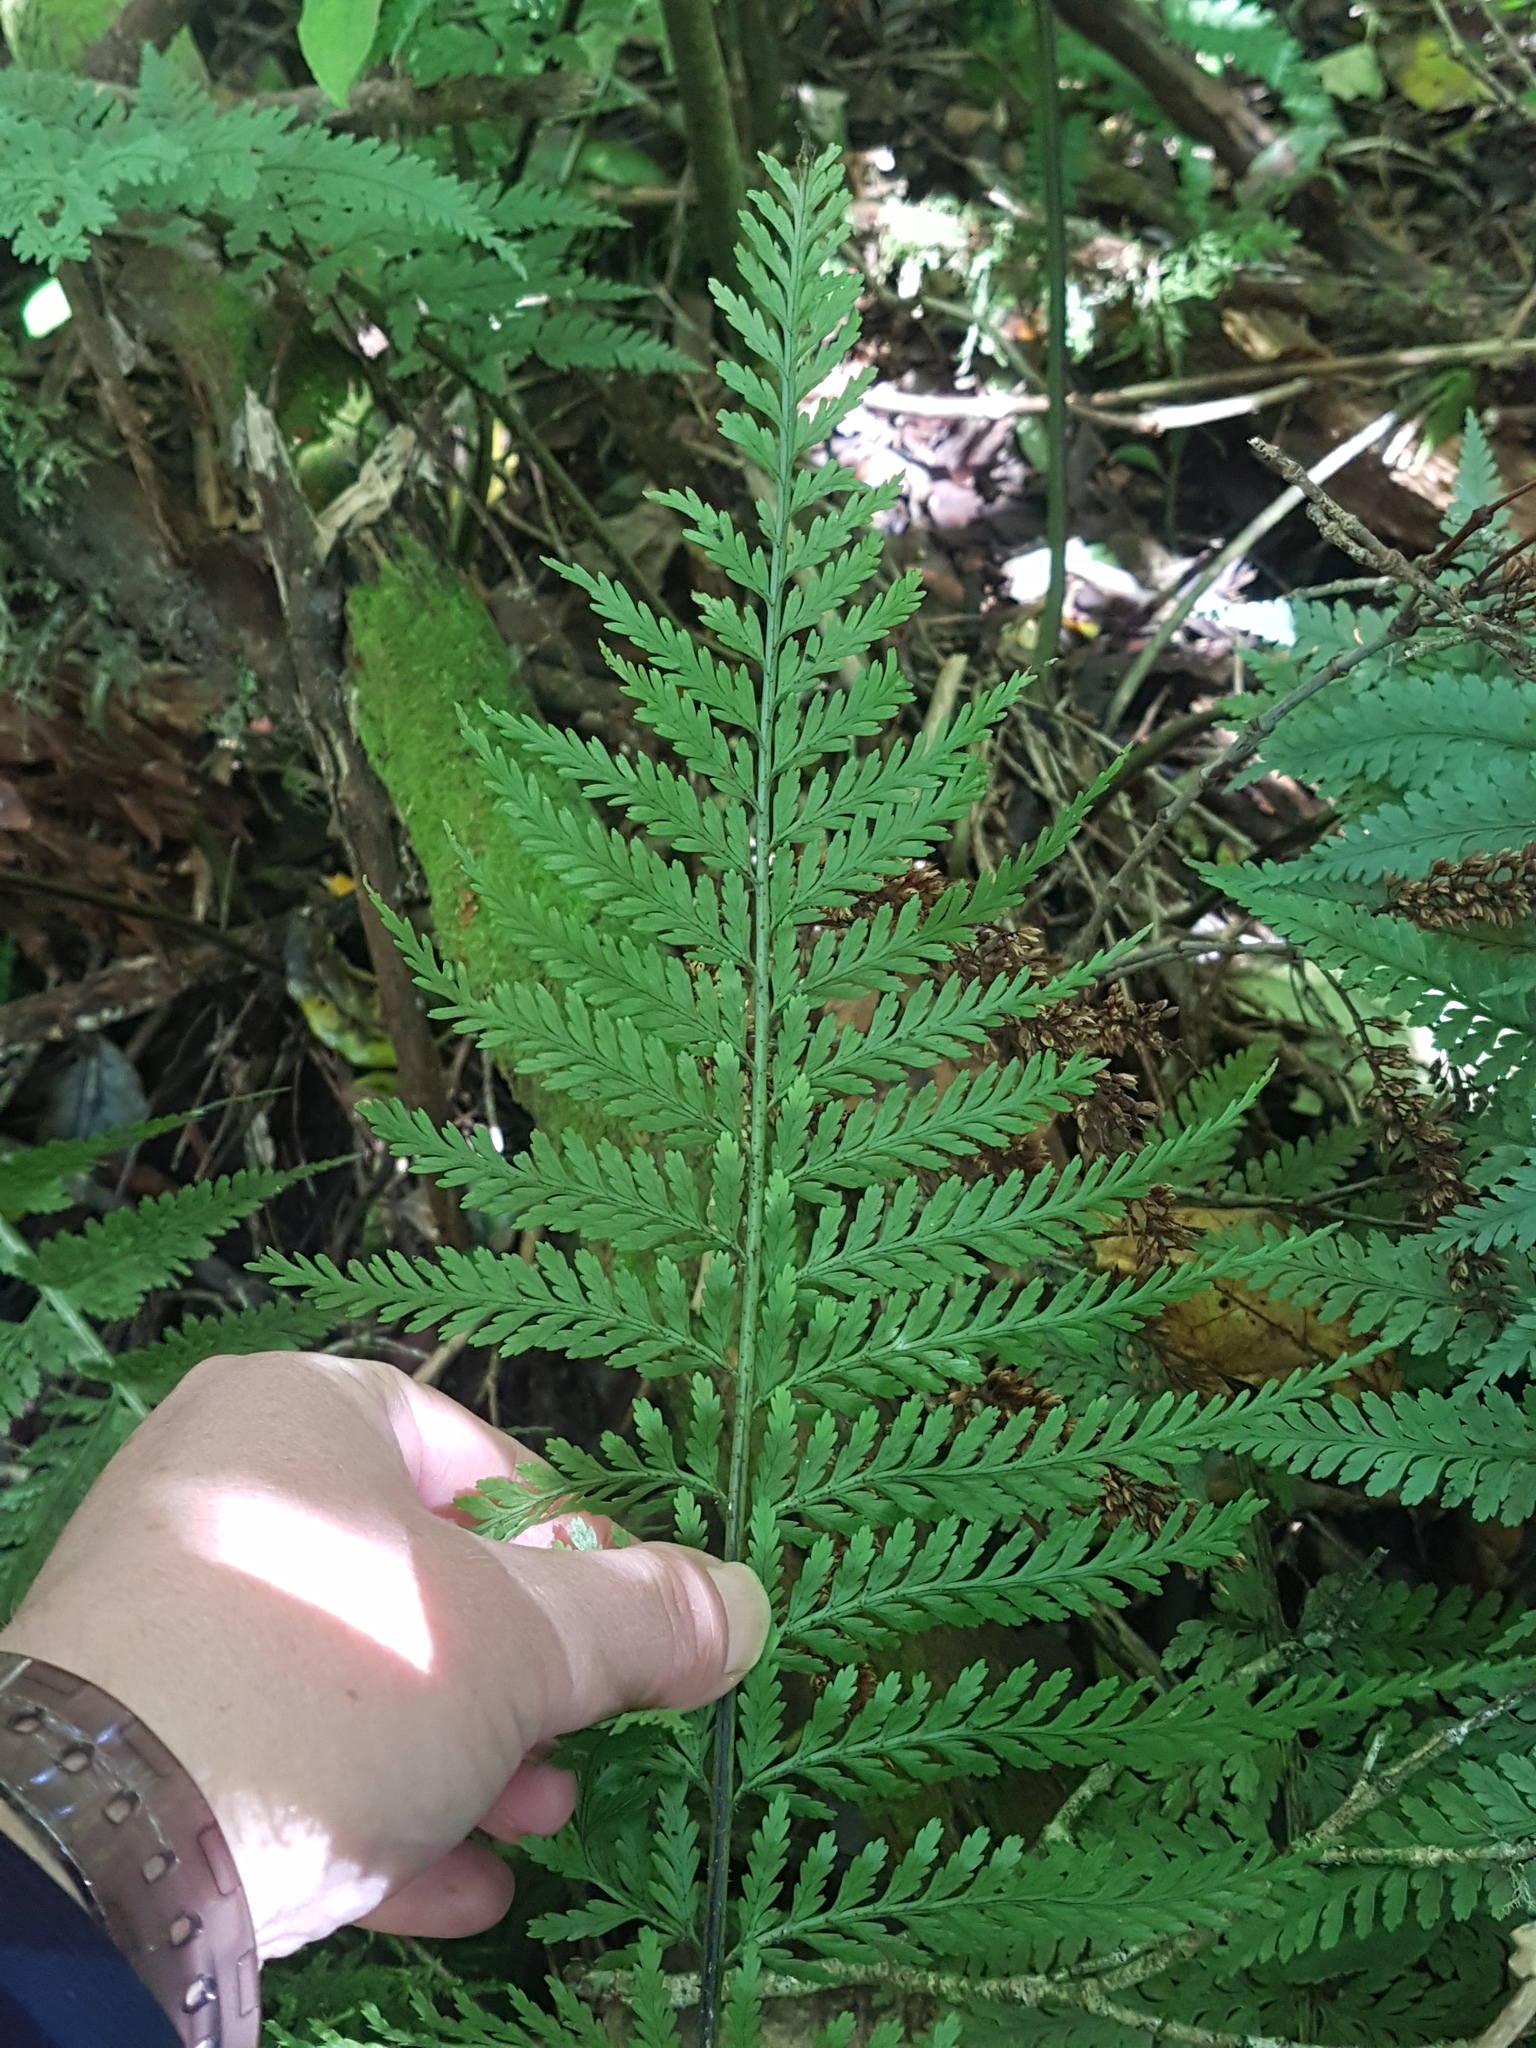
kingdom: Plantae
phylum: Tracheophyta
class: Polypodiopsida
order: Polypodiales
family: Aspleniaceae
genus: Asplenium
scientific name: Asplenium bulbiferum
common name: Mother fern
